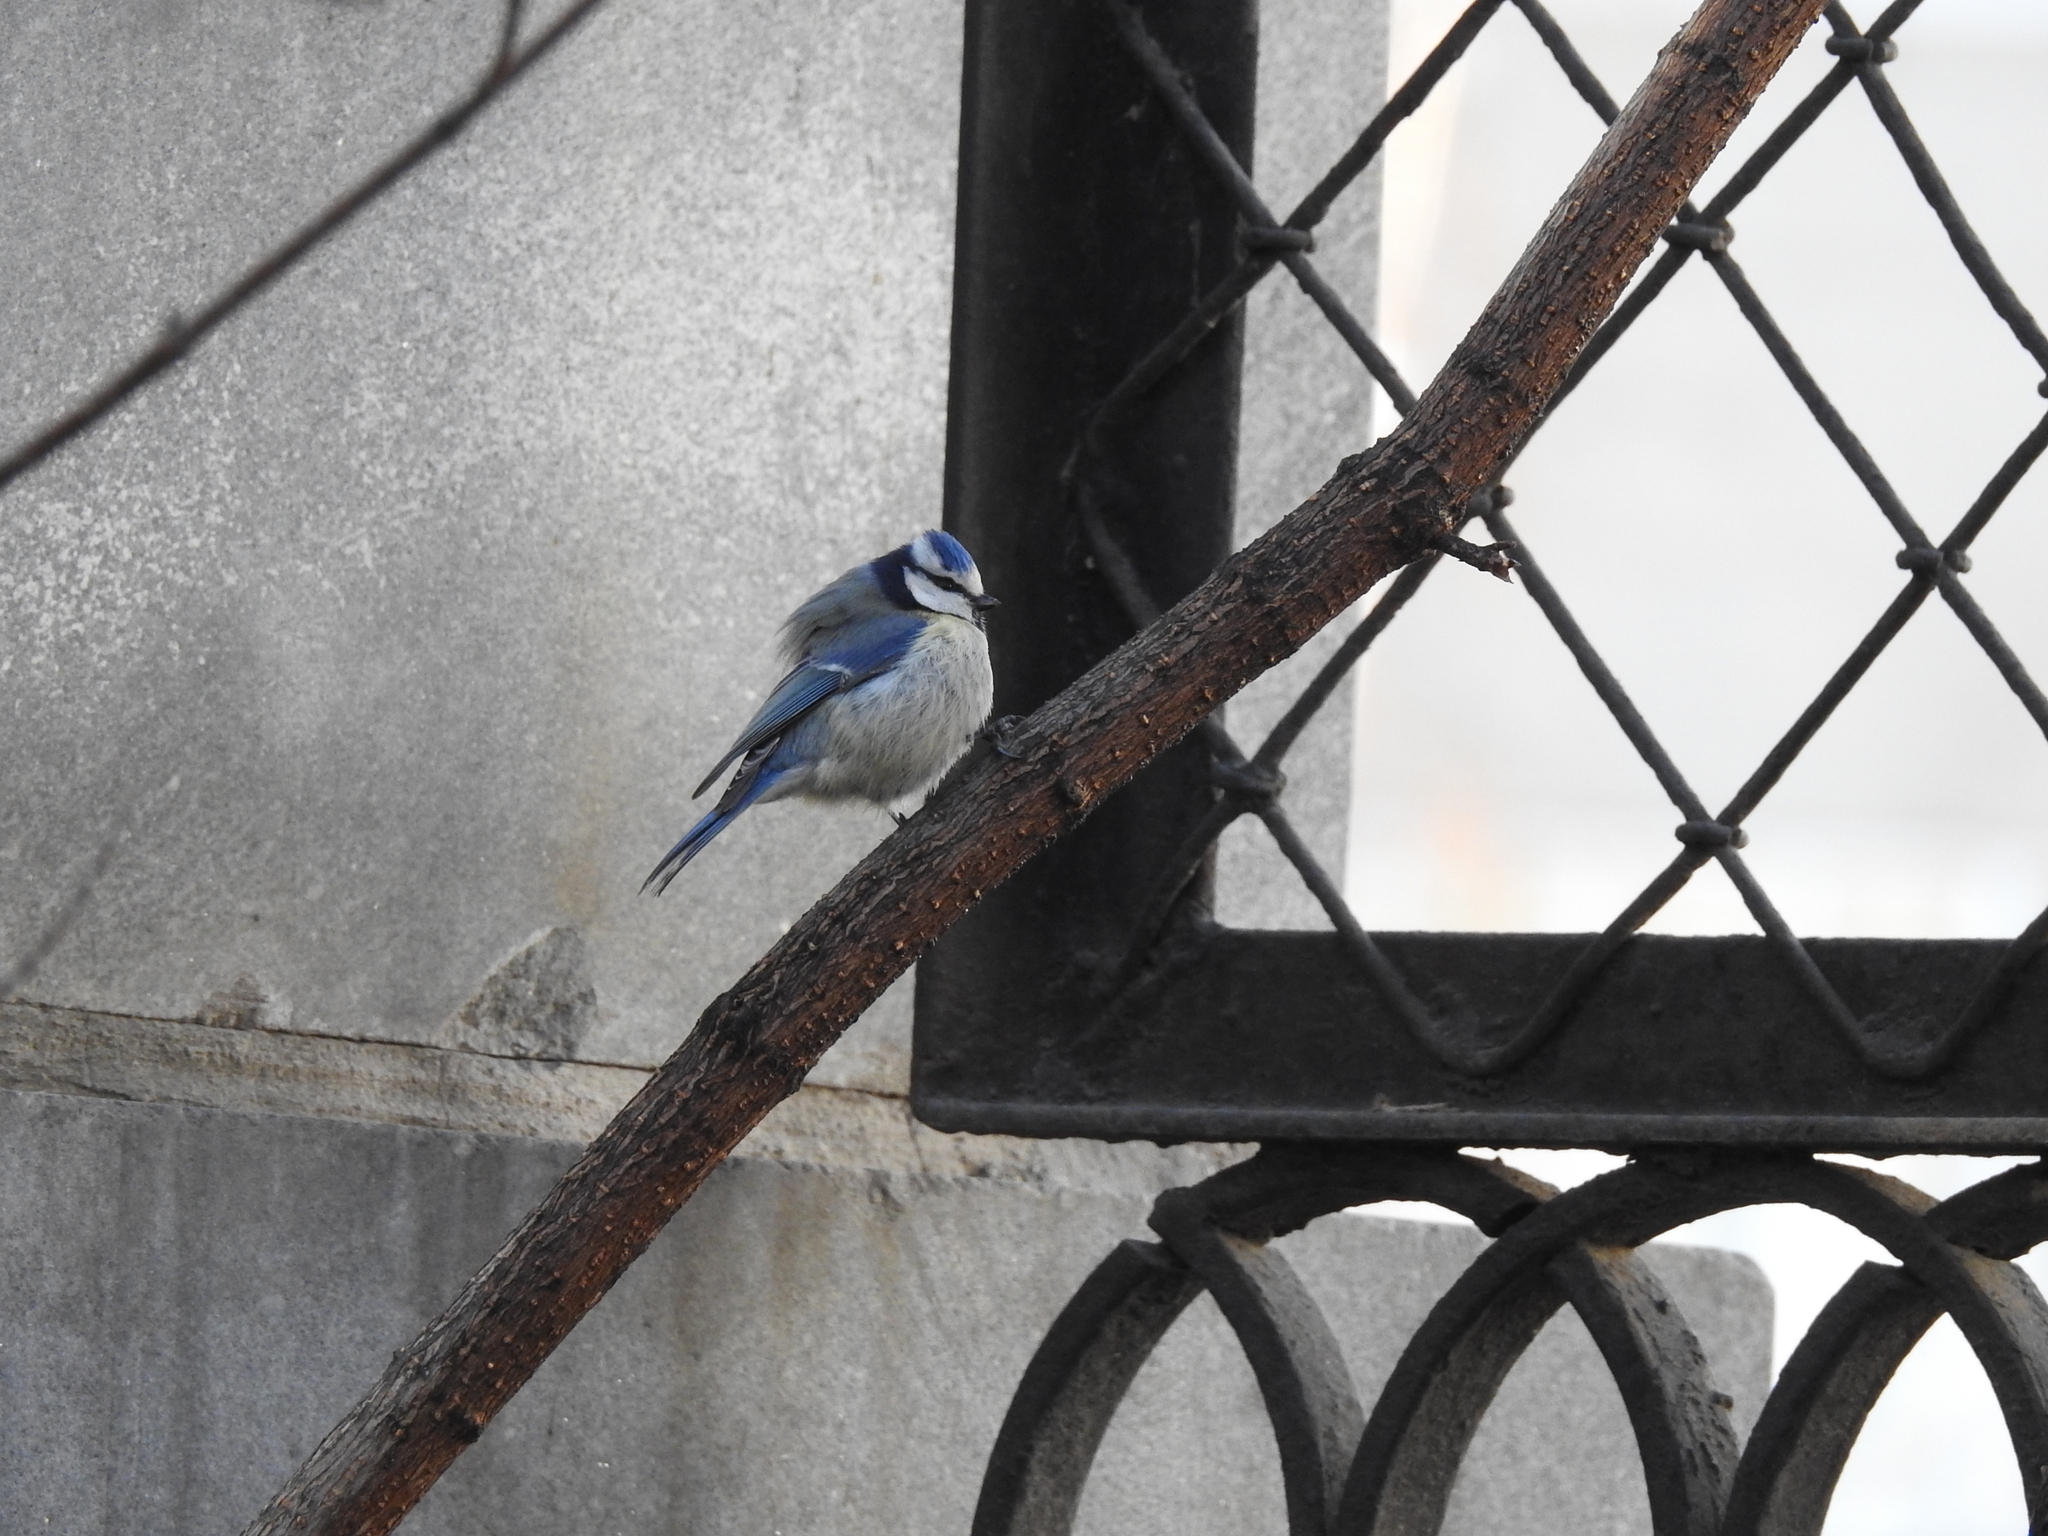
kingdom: Animalia
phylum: Chordata
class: Aves
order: Passeriformes
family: Paridae
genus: Cyanistes
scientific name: Cyanistes caeruleus
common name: Eurasian blue tit
